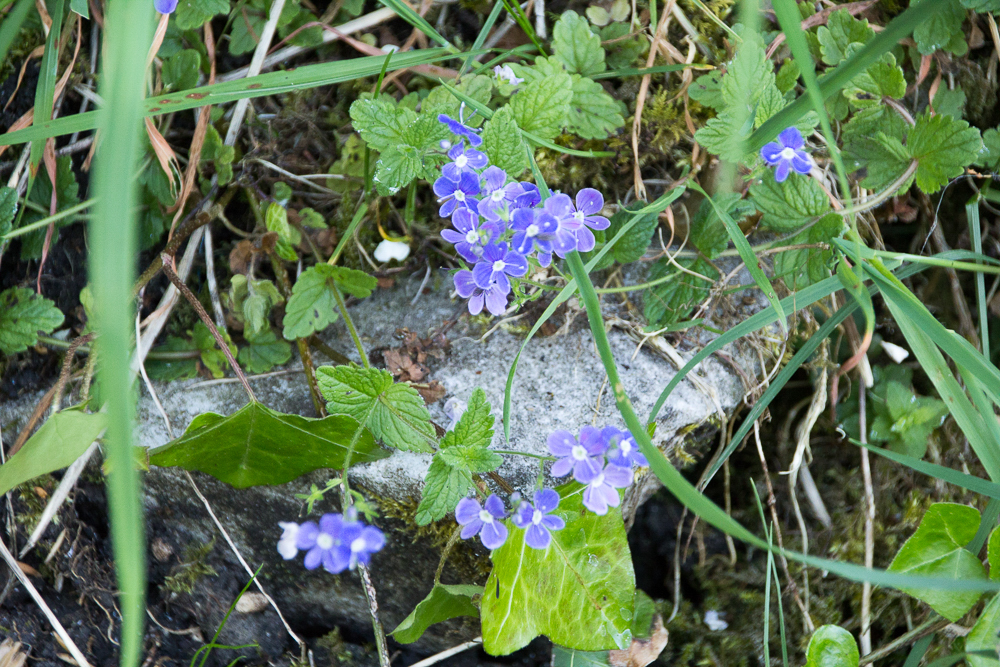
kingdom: Plantae
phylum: Tracheophyta
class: Magnoliopsida
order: Lamiales
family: Plantaginaceae
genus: Veronica
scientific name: Veronica chamaedrys
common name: Germander speedwell
